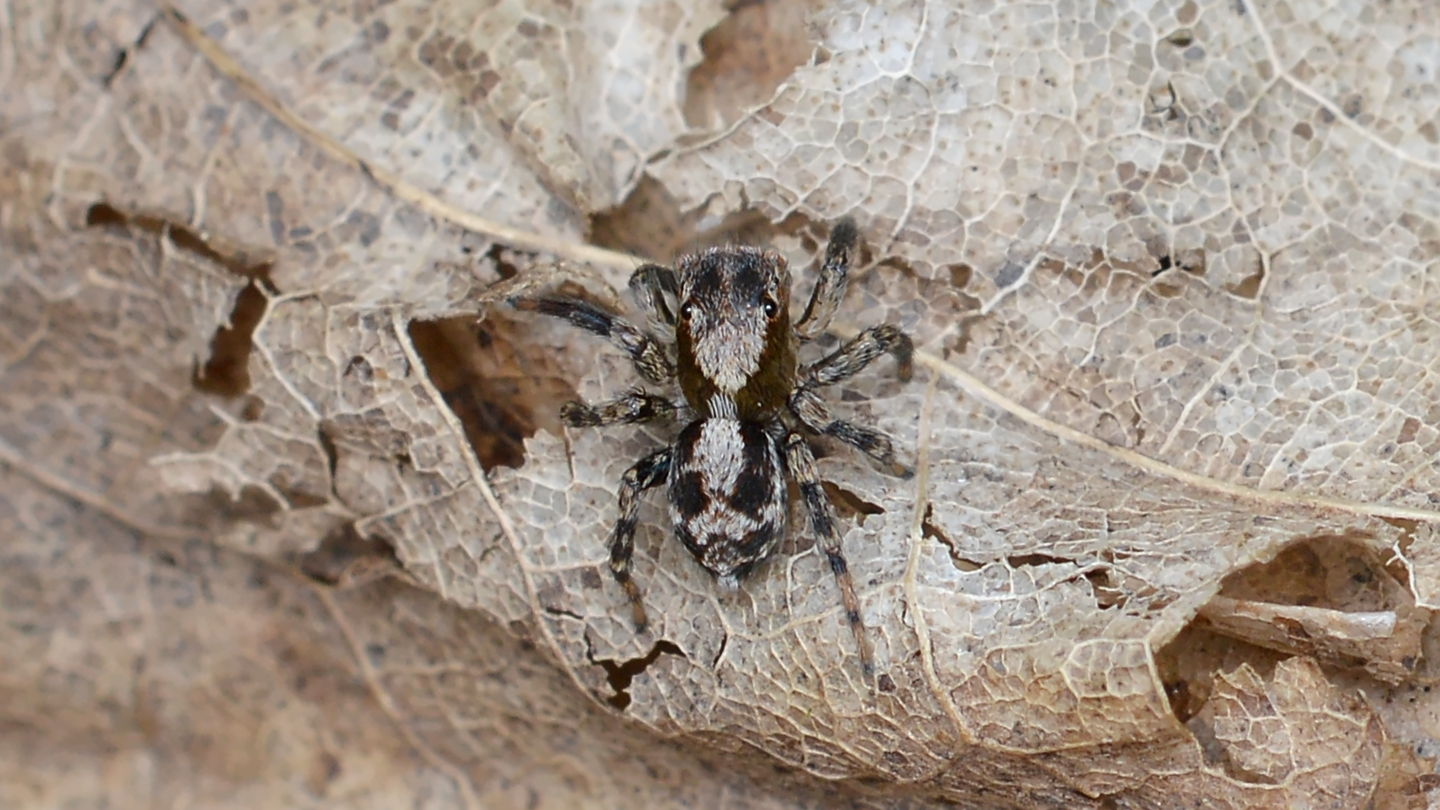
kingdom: Animalia
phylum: Arthropoda
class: Arachnida
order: Araneae
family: Salticidae
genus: Naphrys
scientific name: Naphrys pulex
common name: Flea jumping spider
